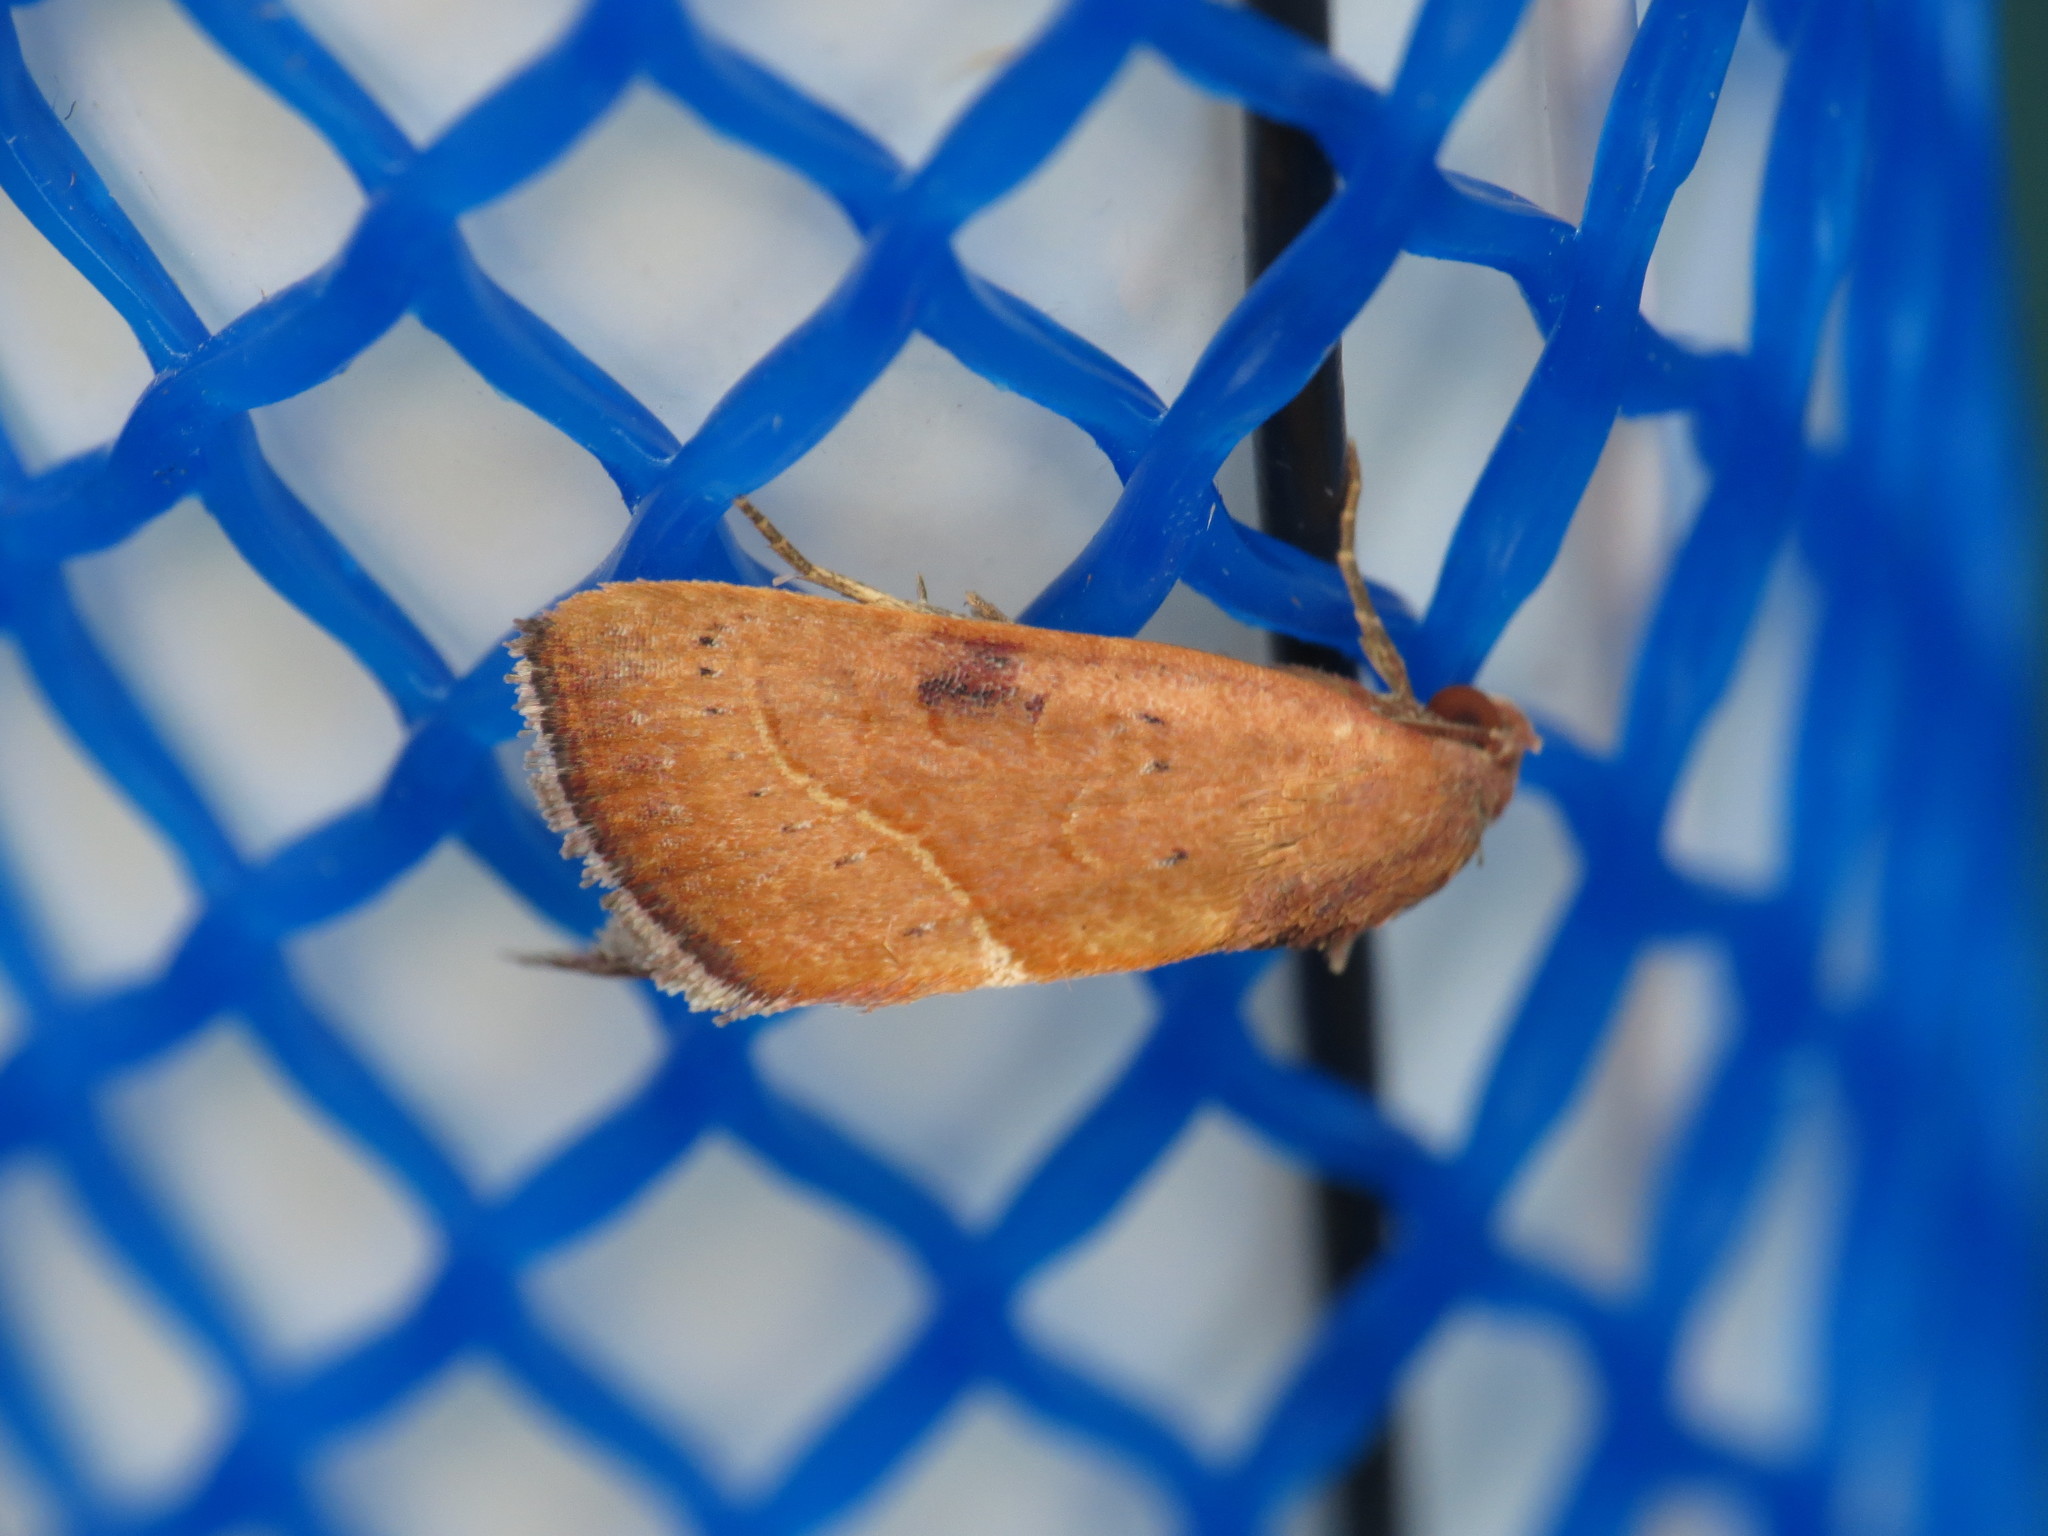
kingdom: Animalia
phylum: Arthropoda
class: Insecta
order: Lepidoptera
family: Noctuidae
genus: Galgula
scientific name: Galgula partita
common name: Wedgeling
